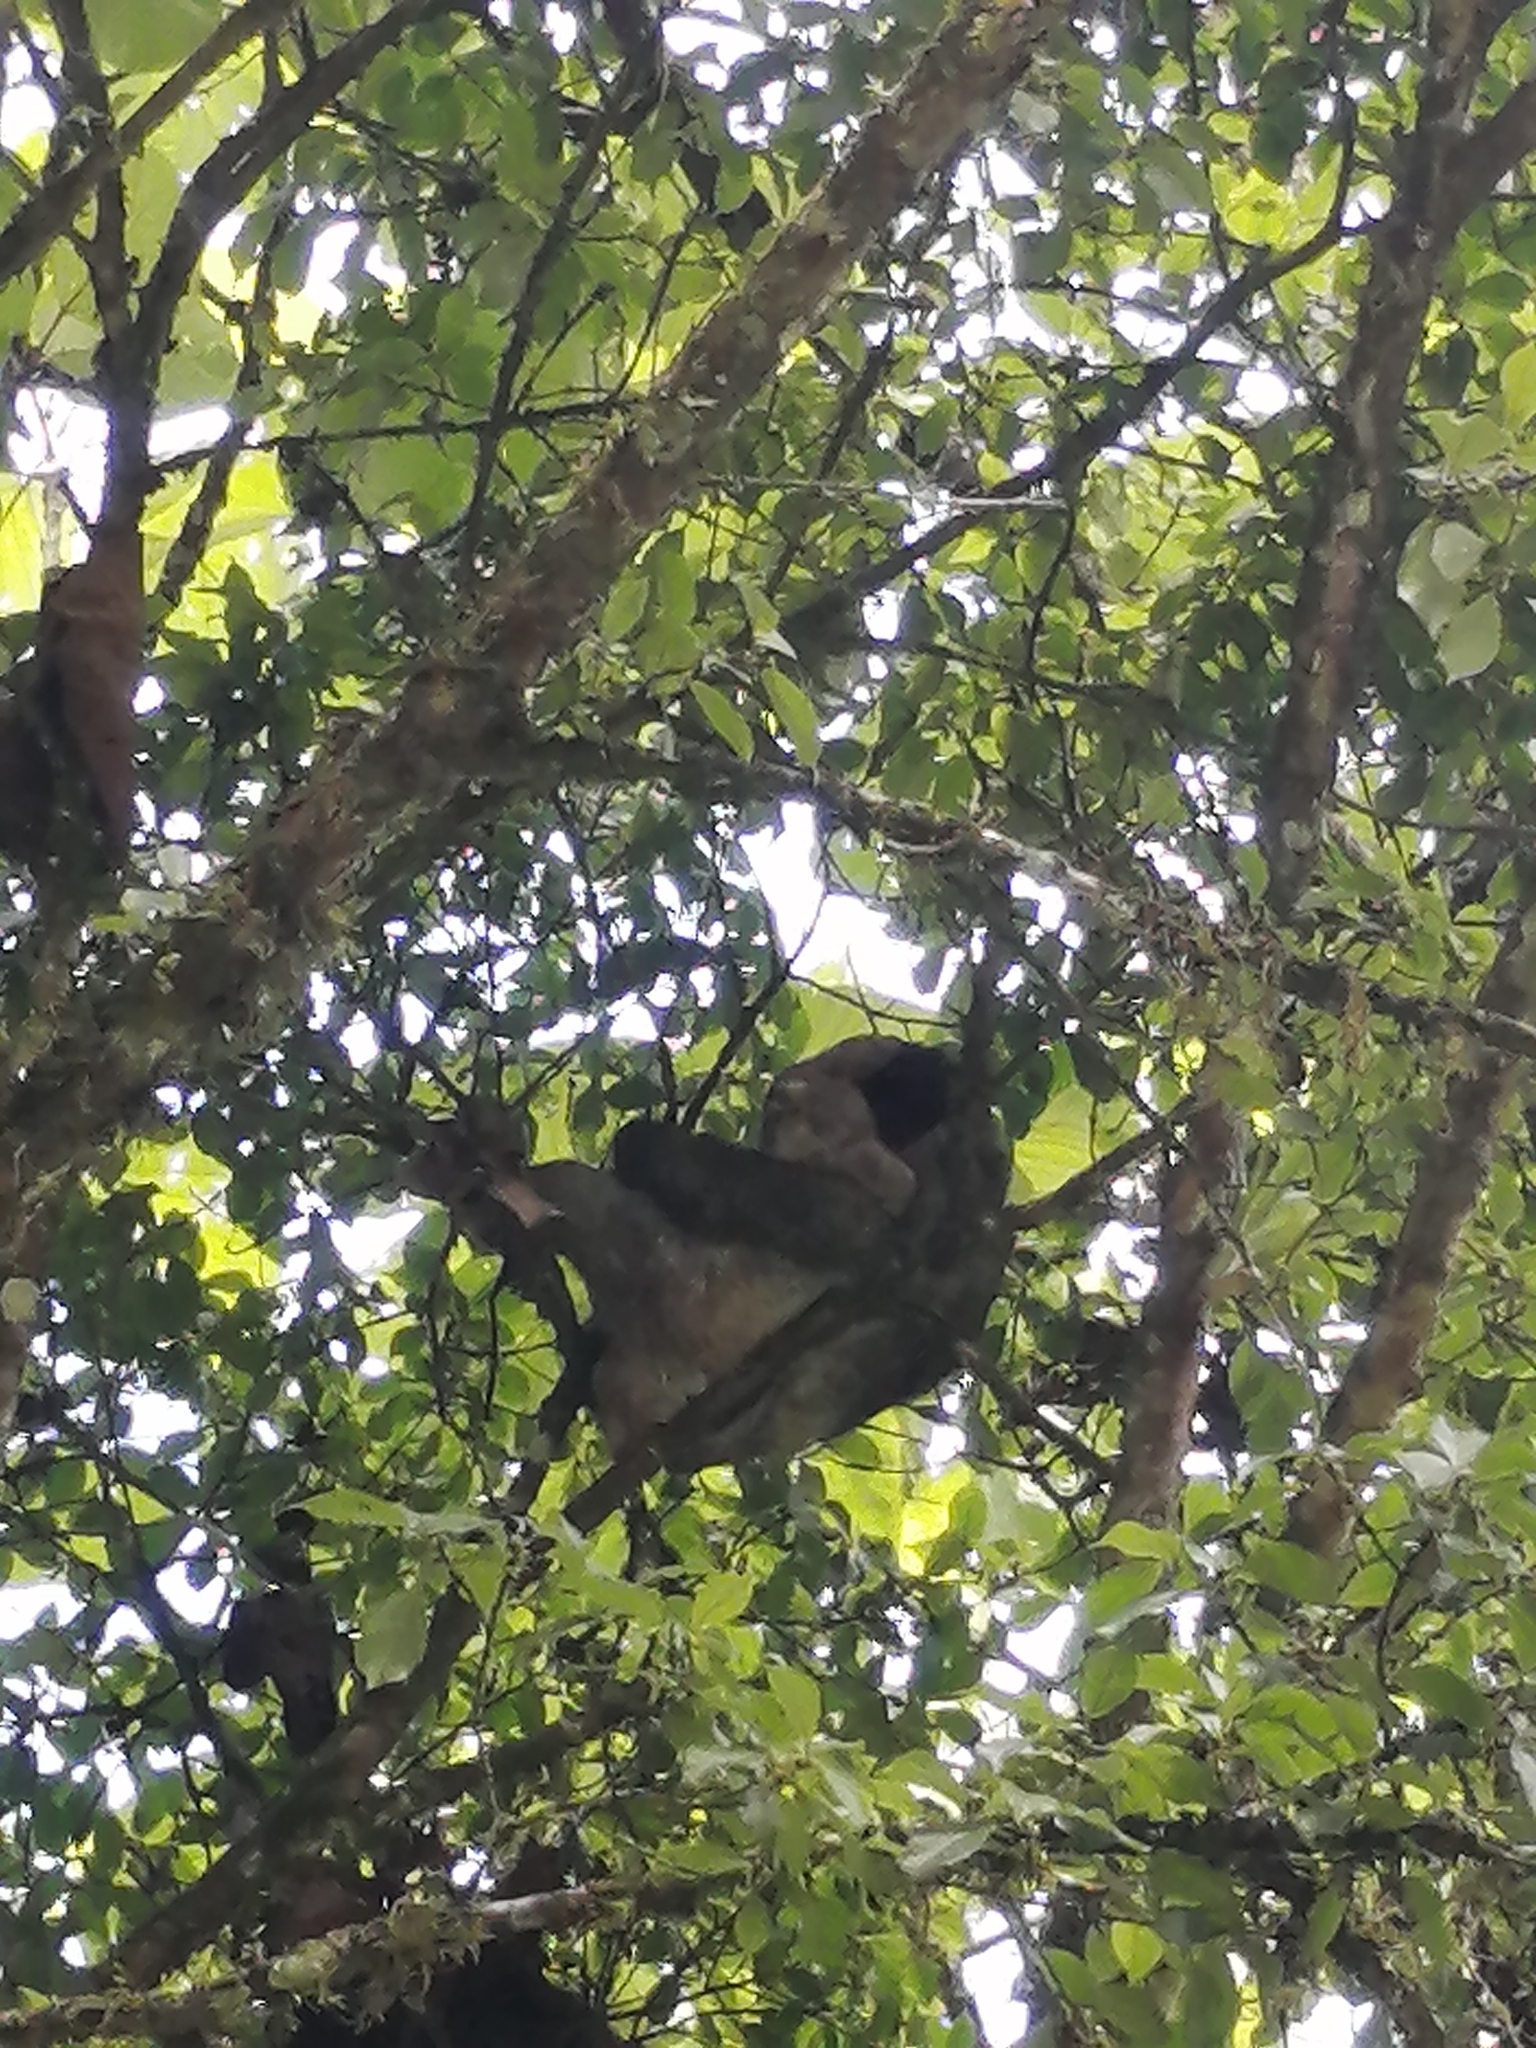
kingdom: Animalia
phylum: Chordata
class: Mammalia
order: Pilosa
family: Bradypodidae
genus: Bradypus
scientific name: Bradypus variegatus
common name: Brown-throated three-toed sloth
